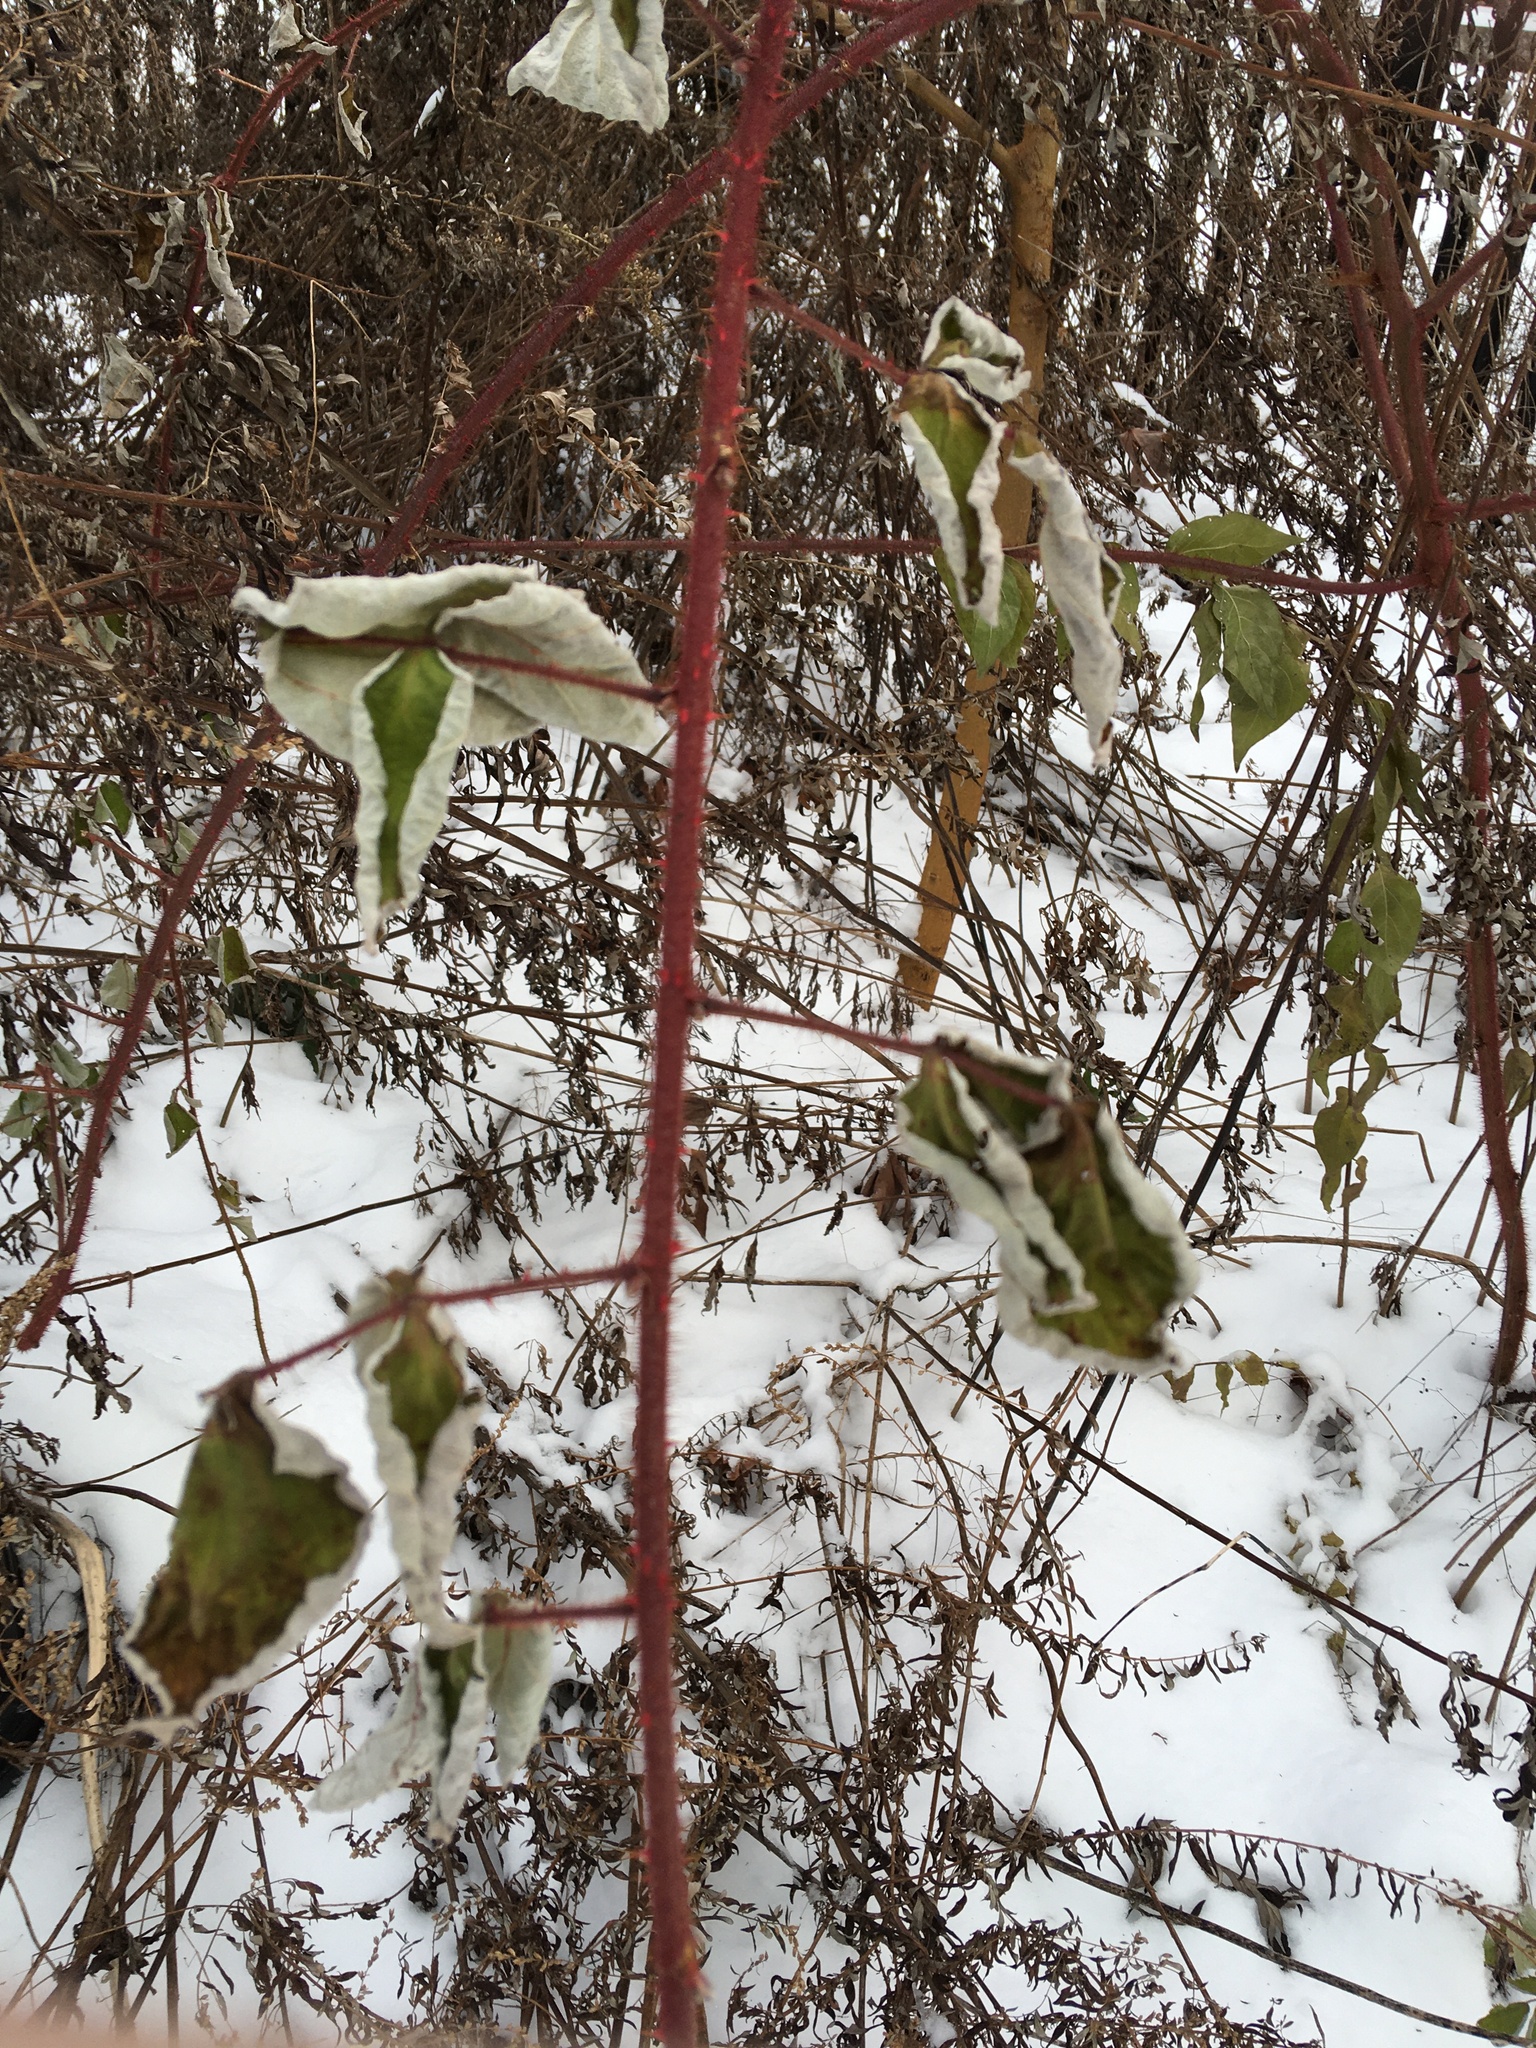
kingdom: Plantae
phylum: Tracheophyta
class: Magnoliopsida
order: Rosales
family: Rosaceae
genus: Rubus
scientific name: Rubus phoenicolasius
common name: Japanese wineberry
